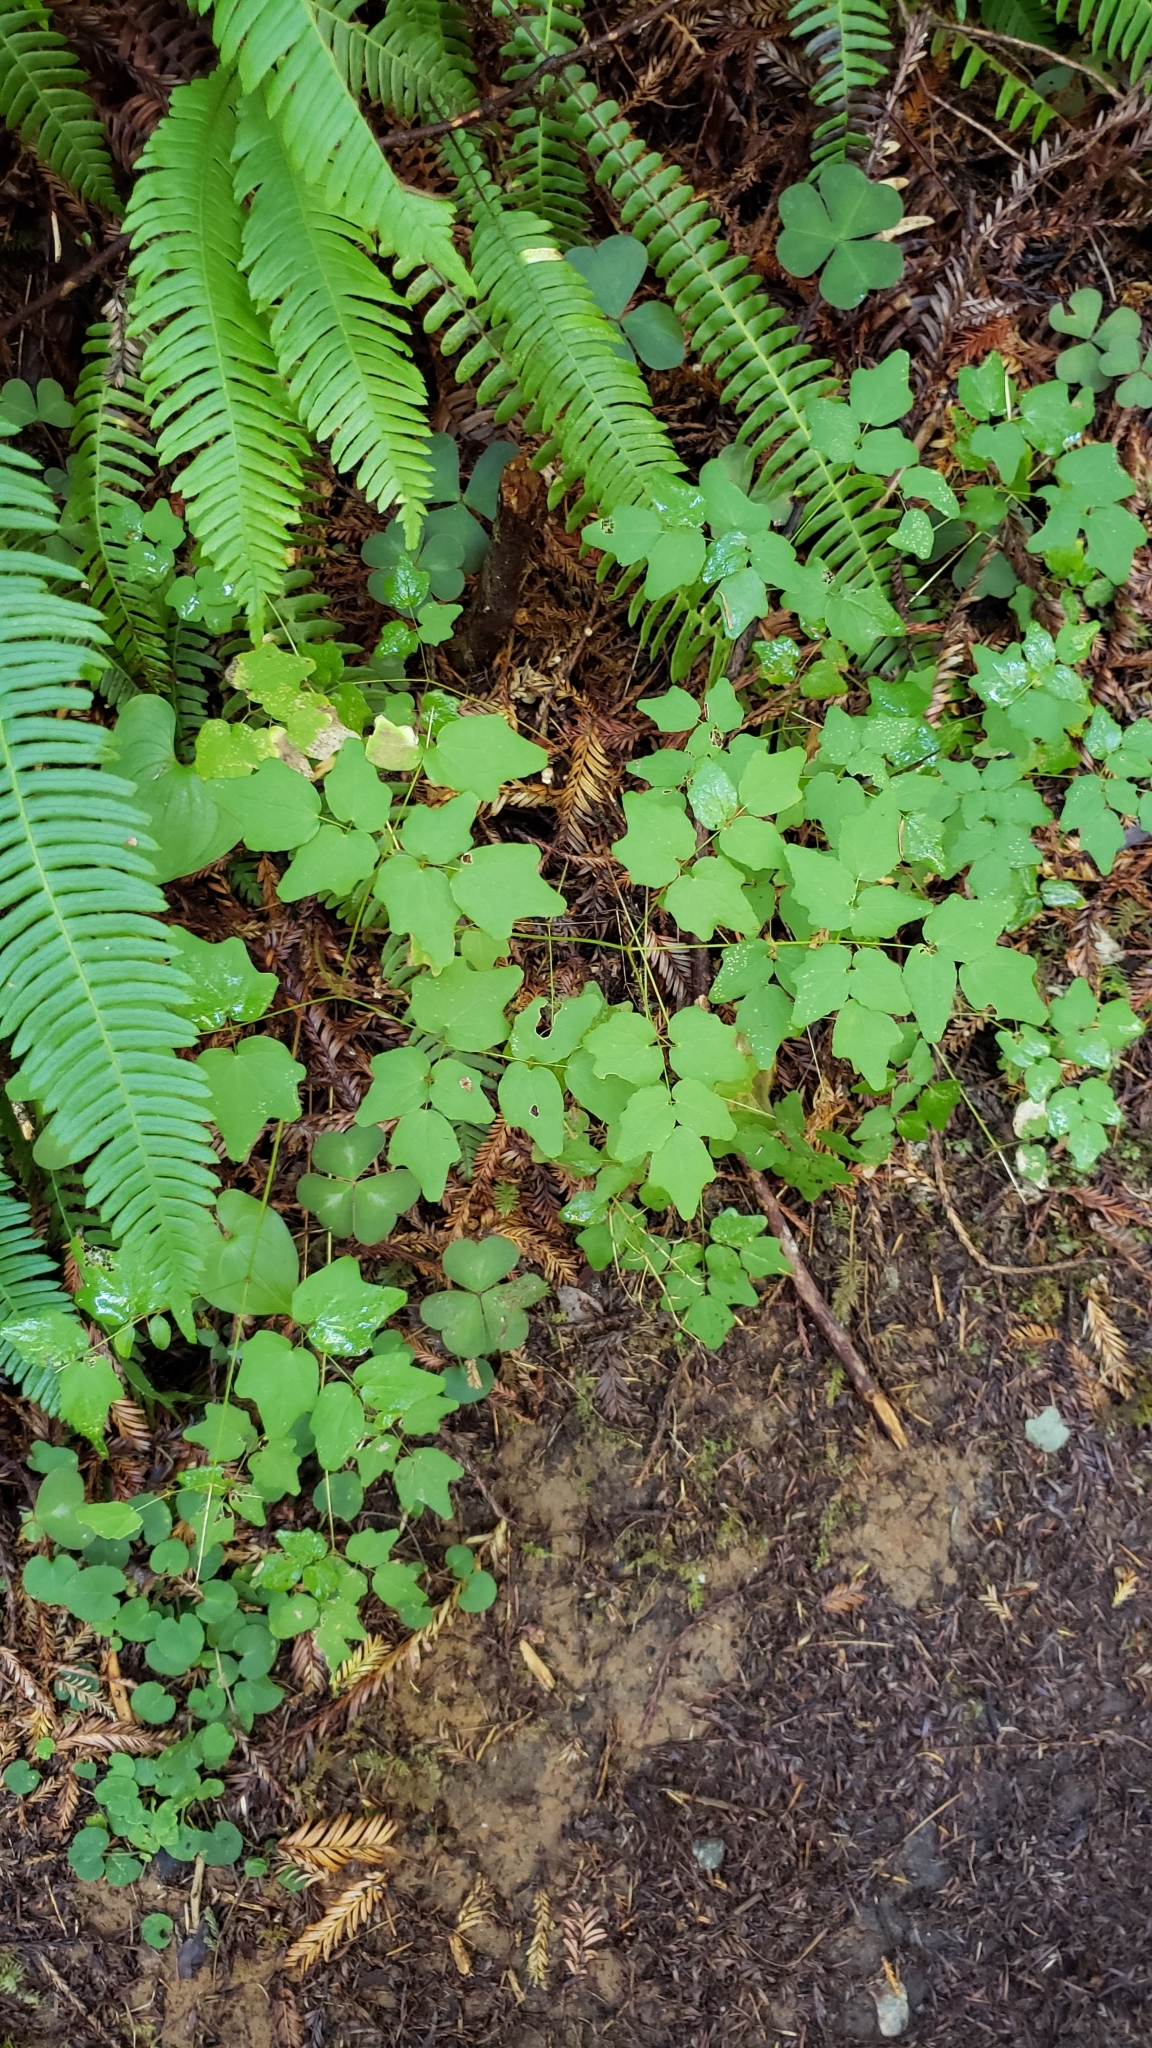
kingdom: Plantae
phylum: Tracheophyta
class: Magnoliopsida
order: Ranunculales
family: Berberidaceae
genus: Vancouveria
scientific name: Vancouveria hexandra
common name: Northern inside-out-flower
